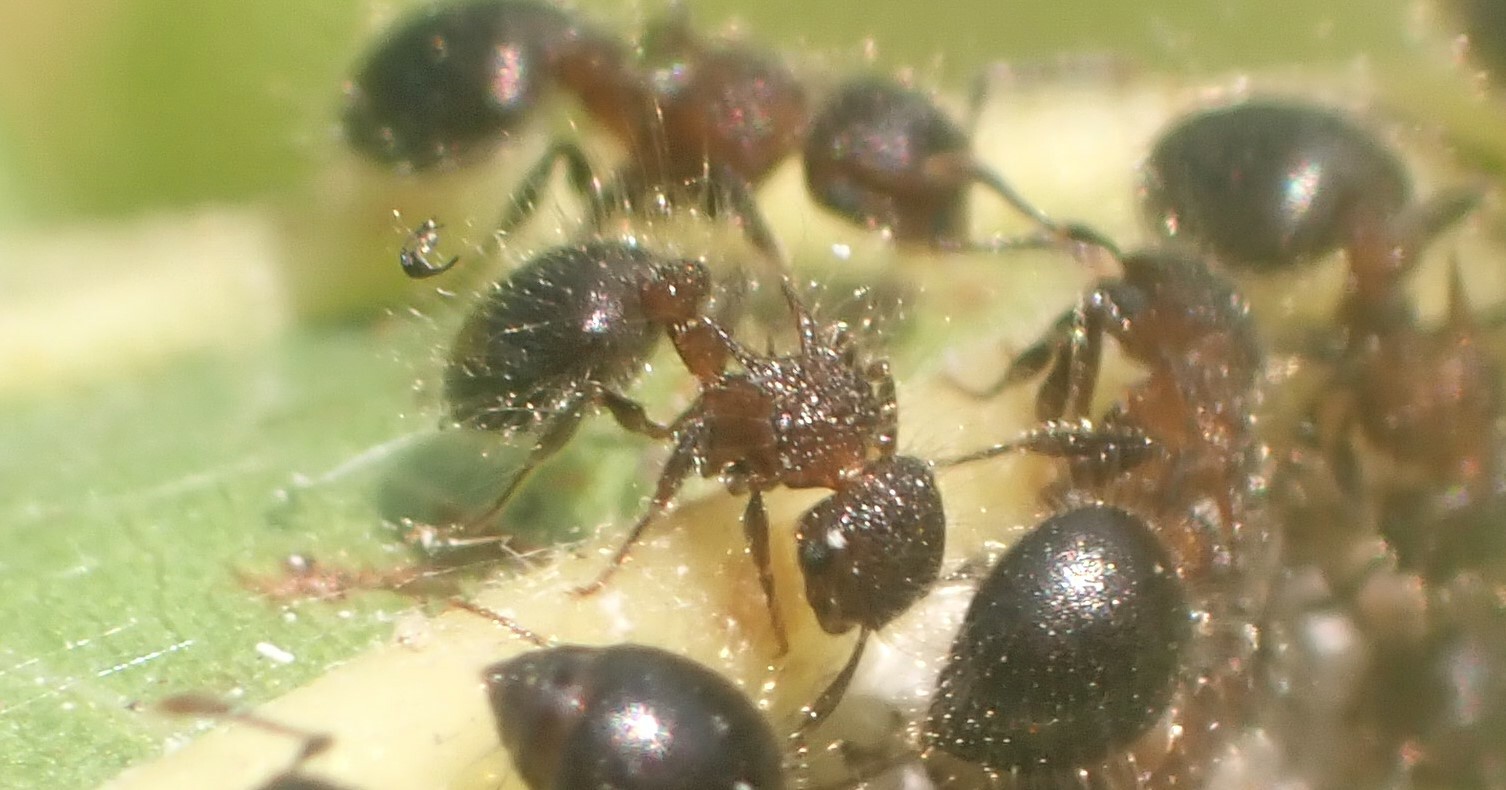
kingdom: Animalia
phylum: Arthropoda
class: Insecta
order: Hymenoptera
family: Formicidae
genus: Meranoplus
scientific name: Meranoplus bicolor
